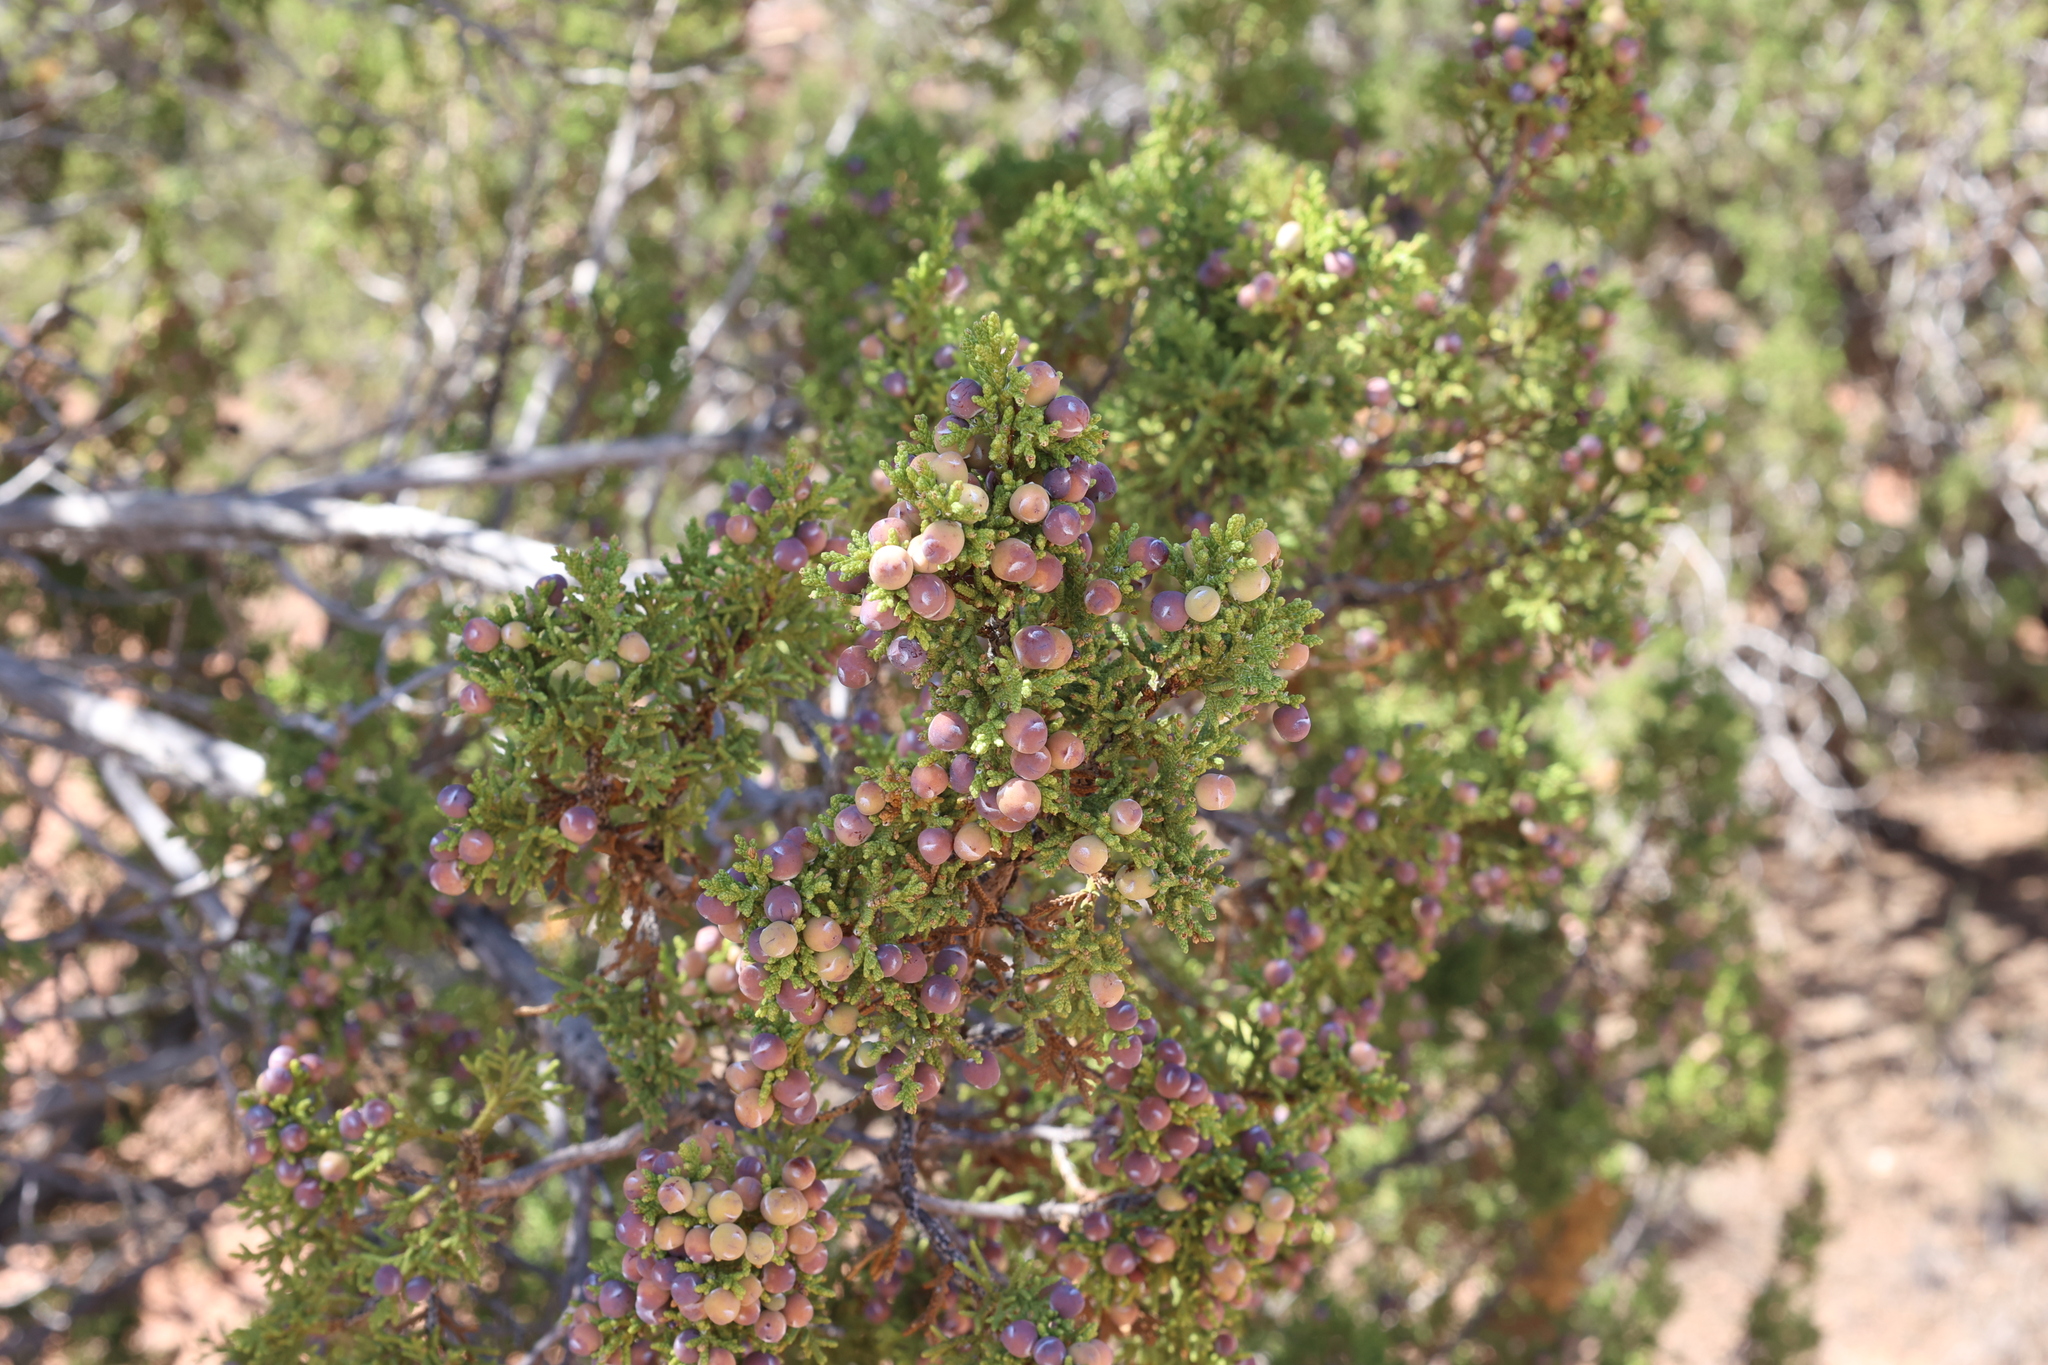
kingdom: Plantae
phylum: Tracheophyta
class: Pinopsida
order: Pinales
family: Cupressaceae
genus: Juniperus
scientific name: Juniperus monosperma
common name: One-seed juniper
